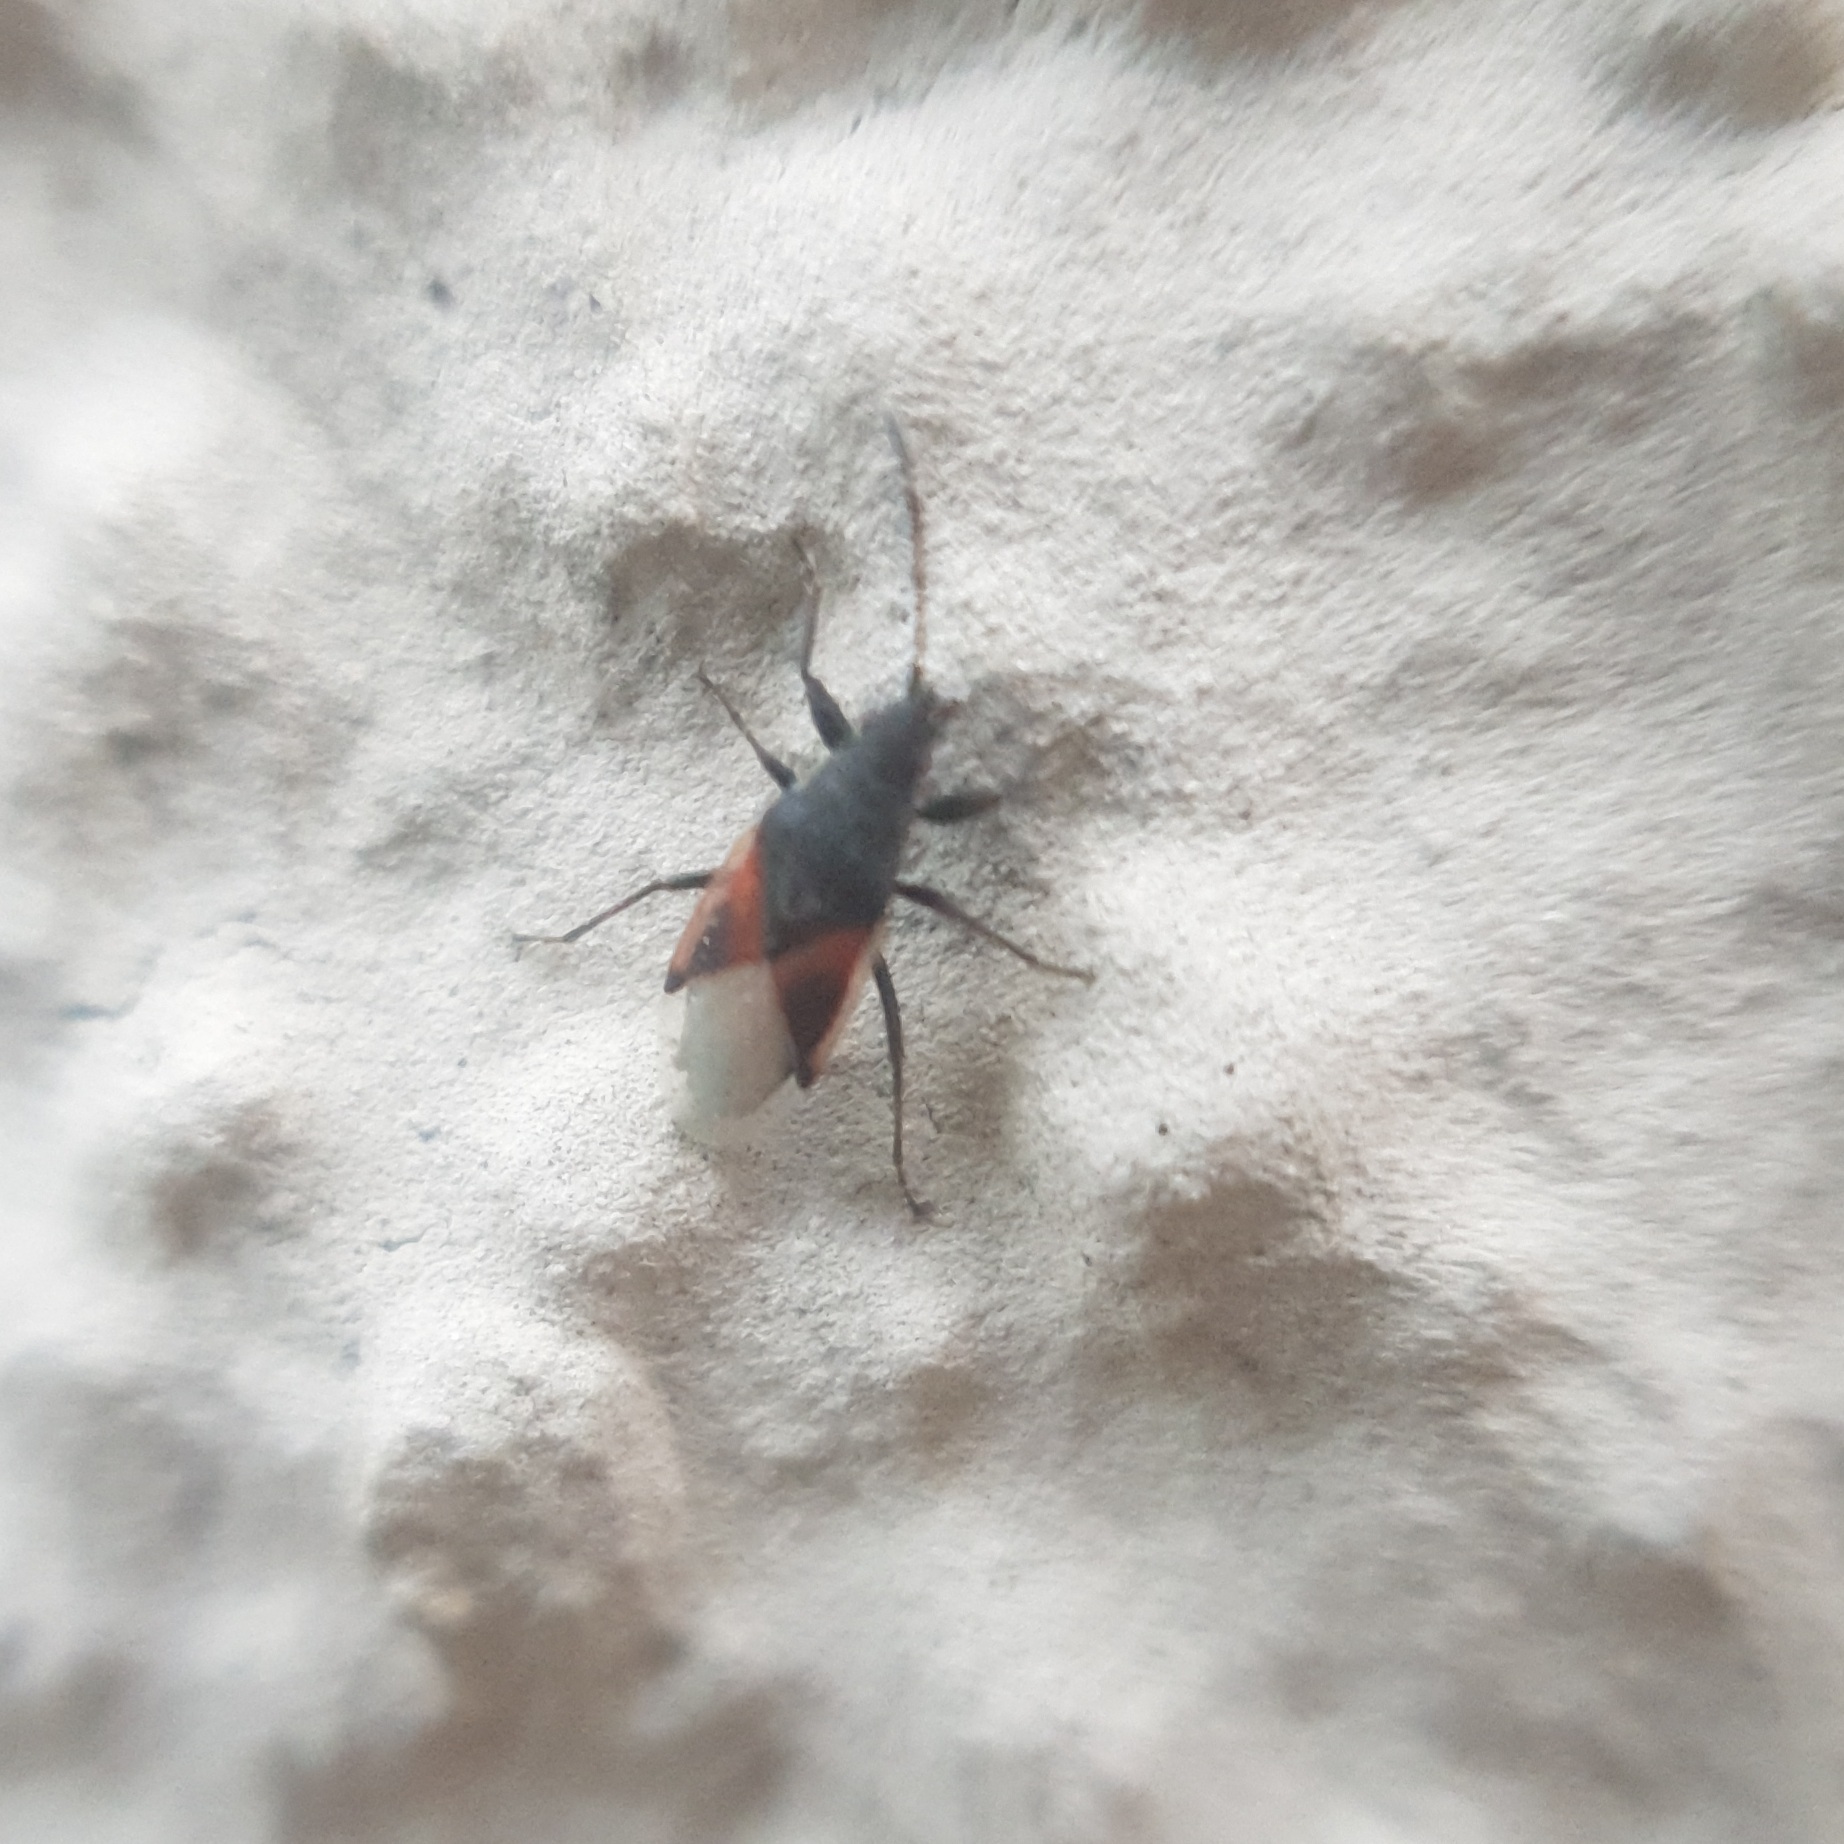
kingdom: Animalia
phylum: Arthropoda
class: Insecta
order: Hemiptera
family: Oxycarenidae
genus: Oxycarenus
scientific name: Oxycarenus lavaterae
